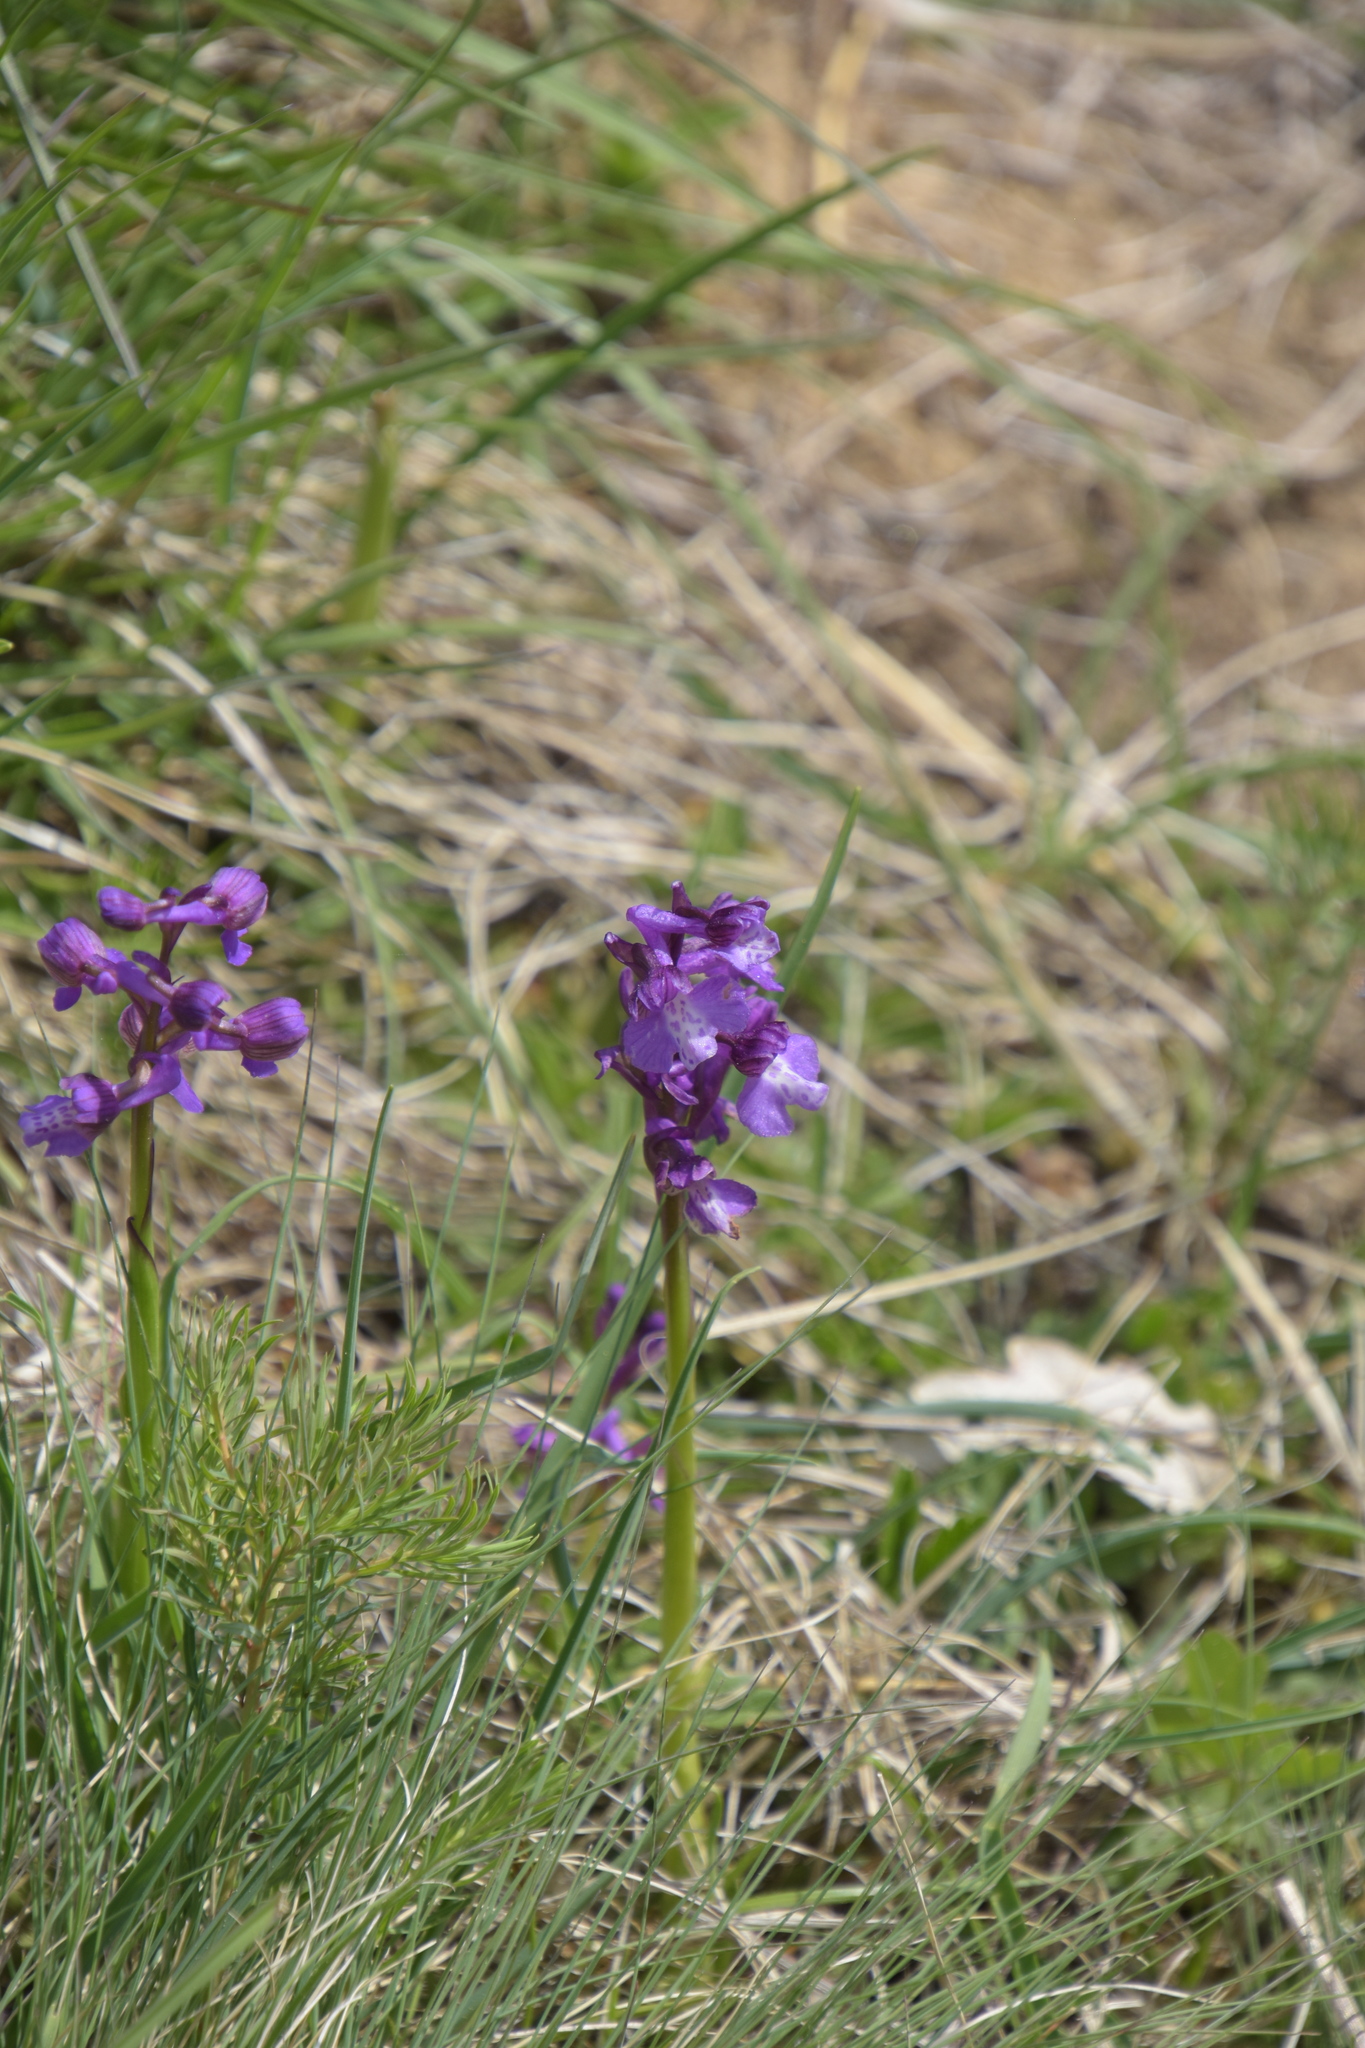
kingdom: Plantae
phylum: Tracheophyta
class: Liliopsida
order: Asparagales
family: Orchidaceae
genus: Anacamptis
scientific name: Anacamptis morio
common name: Green-winged orchid
